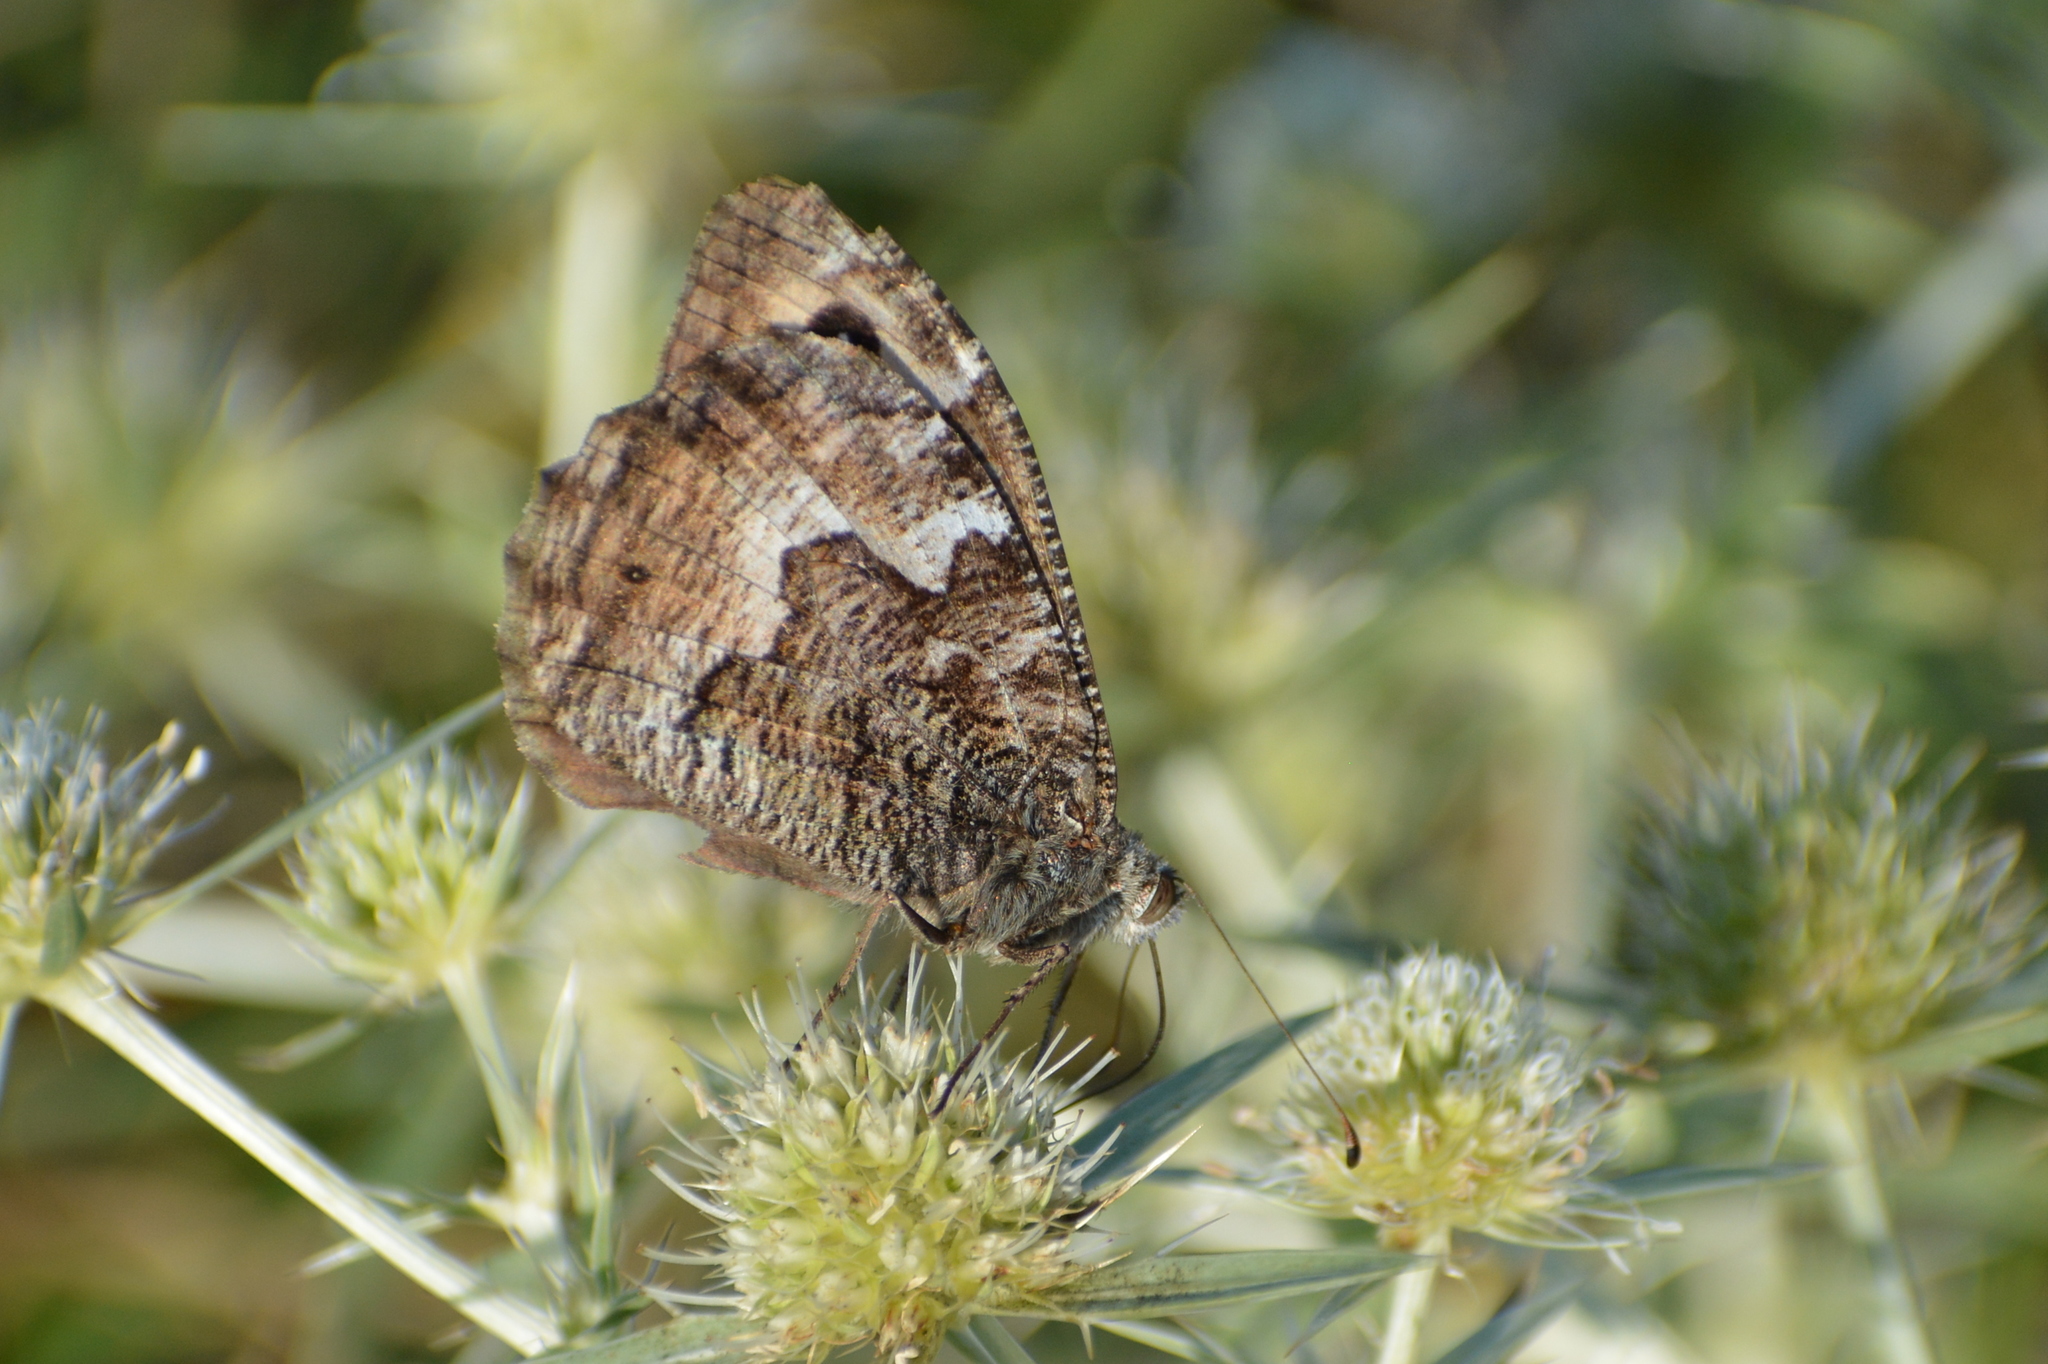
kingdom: Animalia
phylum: Arthropoda
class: Insecta
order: Lepidoptera
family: Nymphalidae
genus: Hipparchia
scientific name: Hipparchia semele
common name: Grayling
